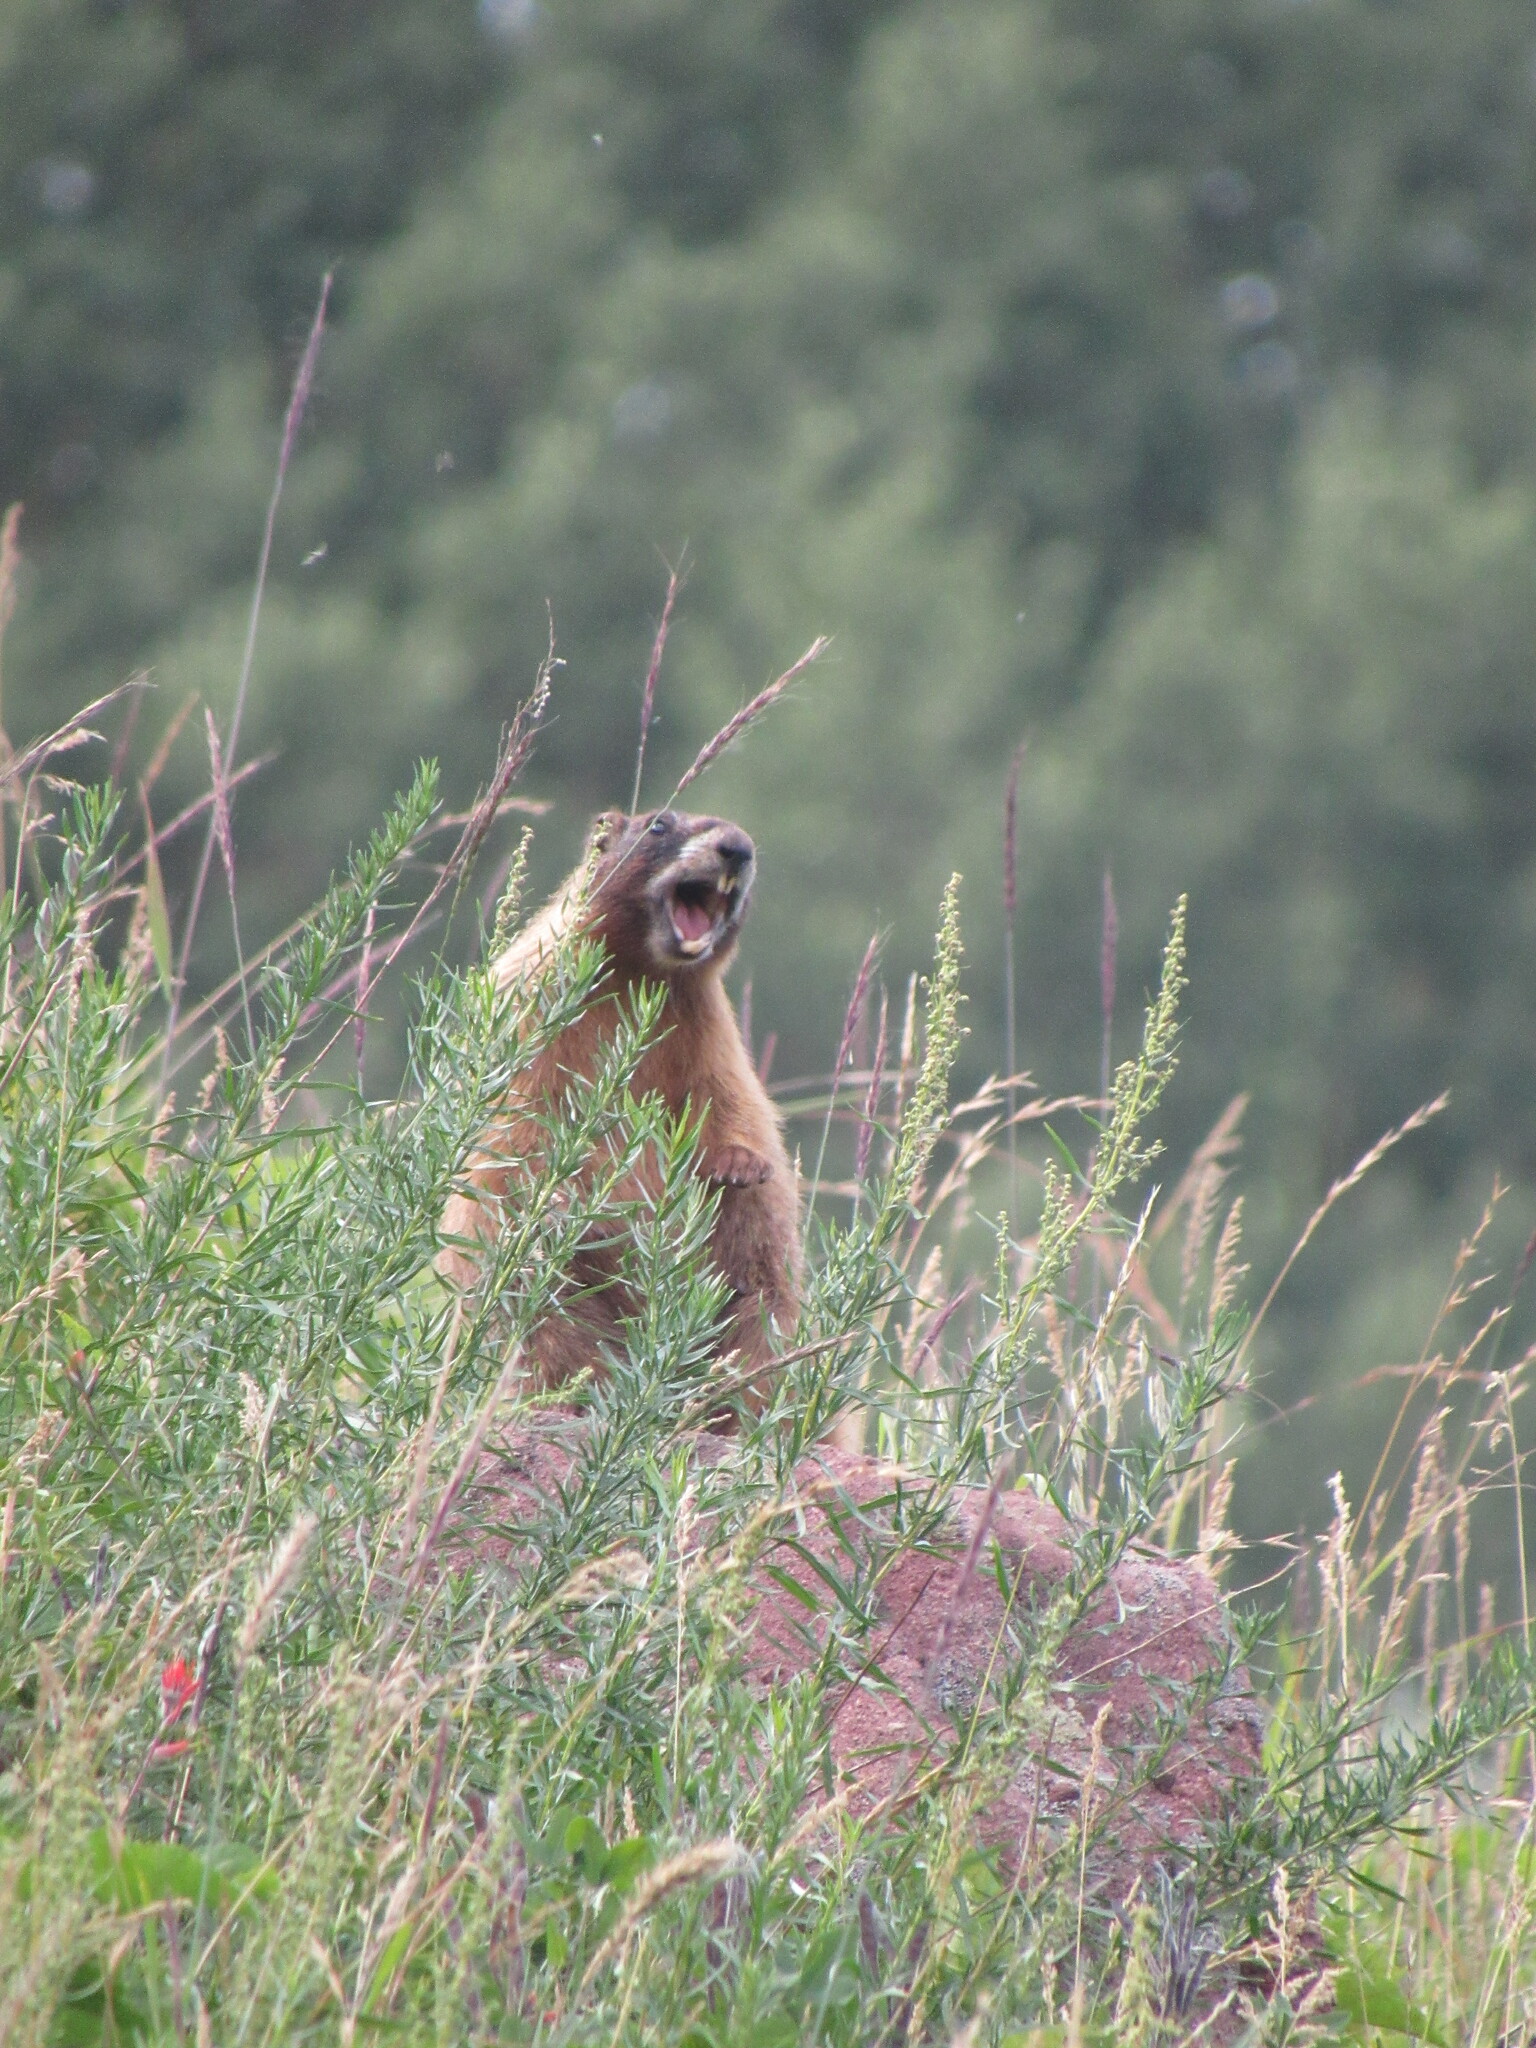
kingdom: Animalia
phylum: Chordata
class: Mammalia
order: Rodentia
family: Sciuridae
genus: Marmota
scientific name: Marmota flaviventris
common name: Yellow-bellied marmot
